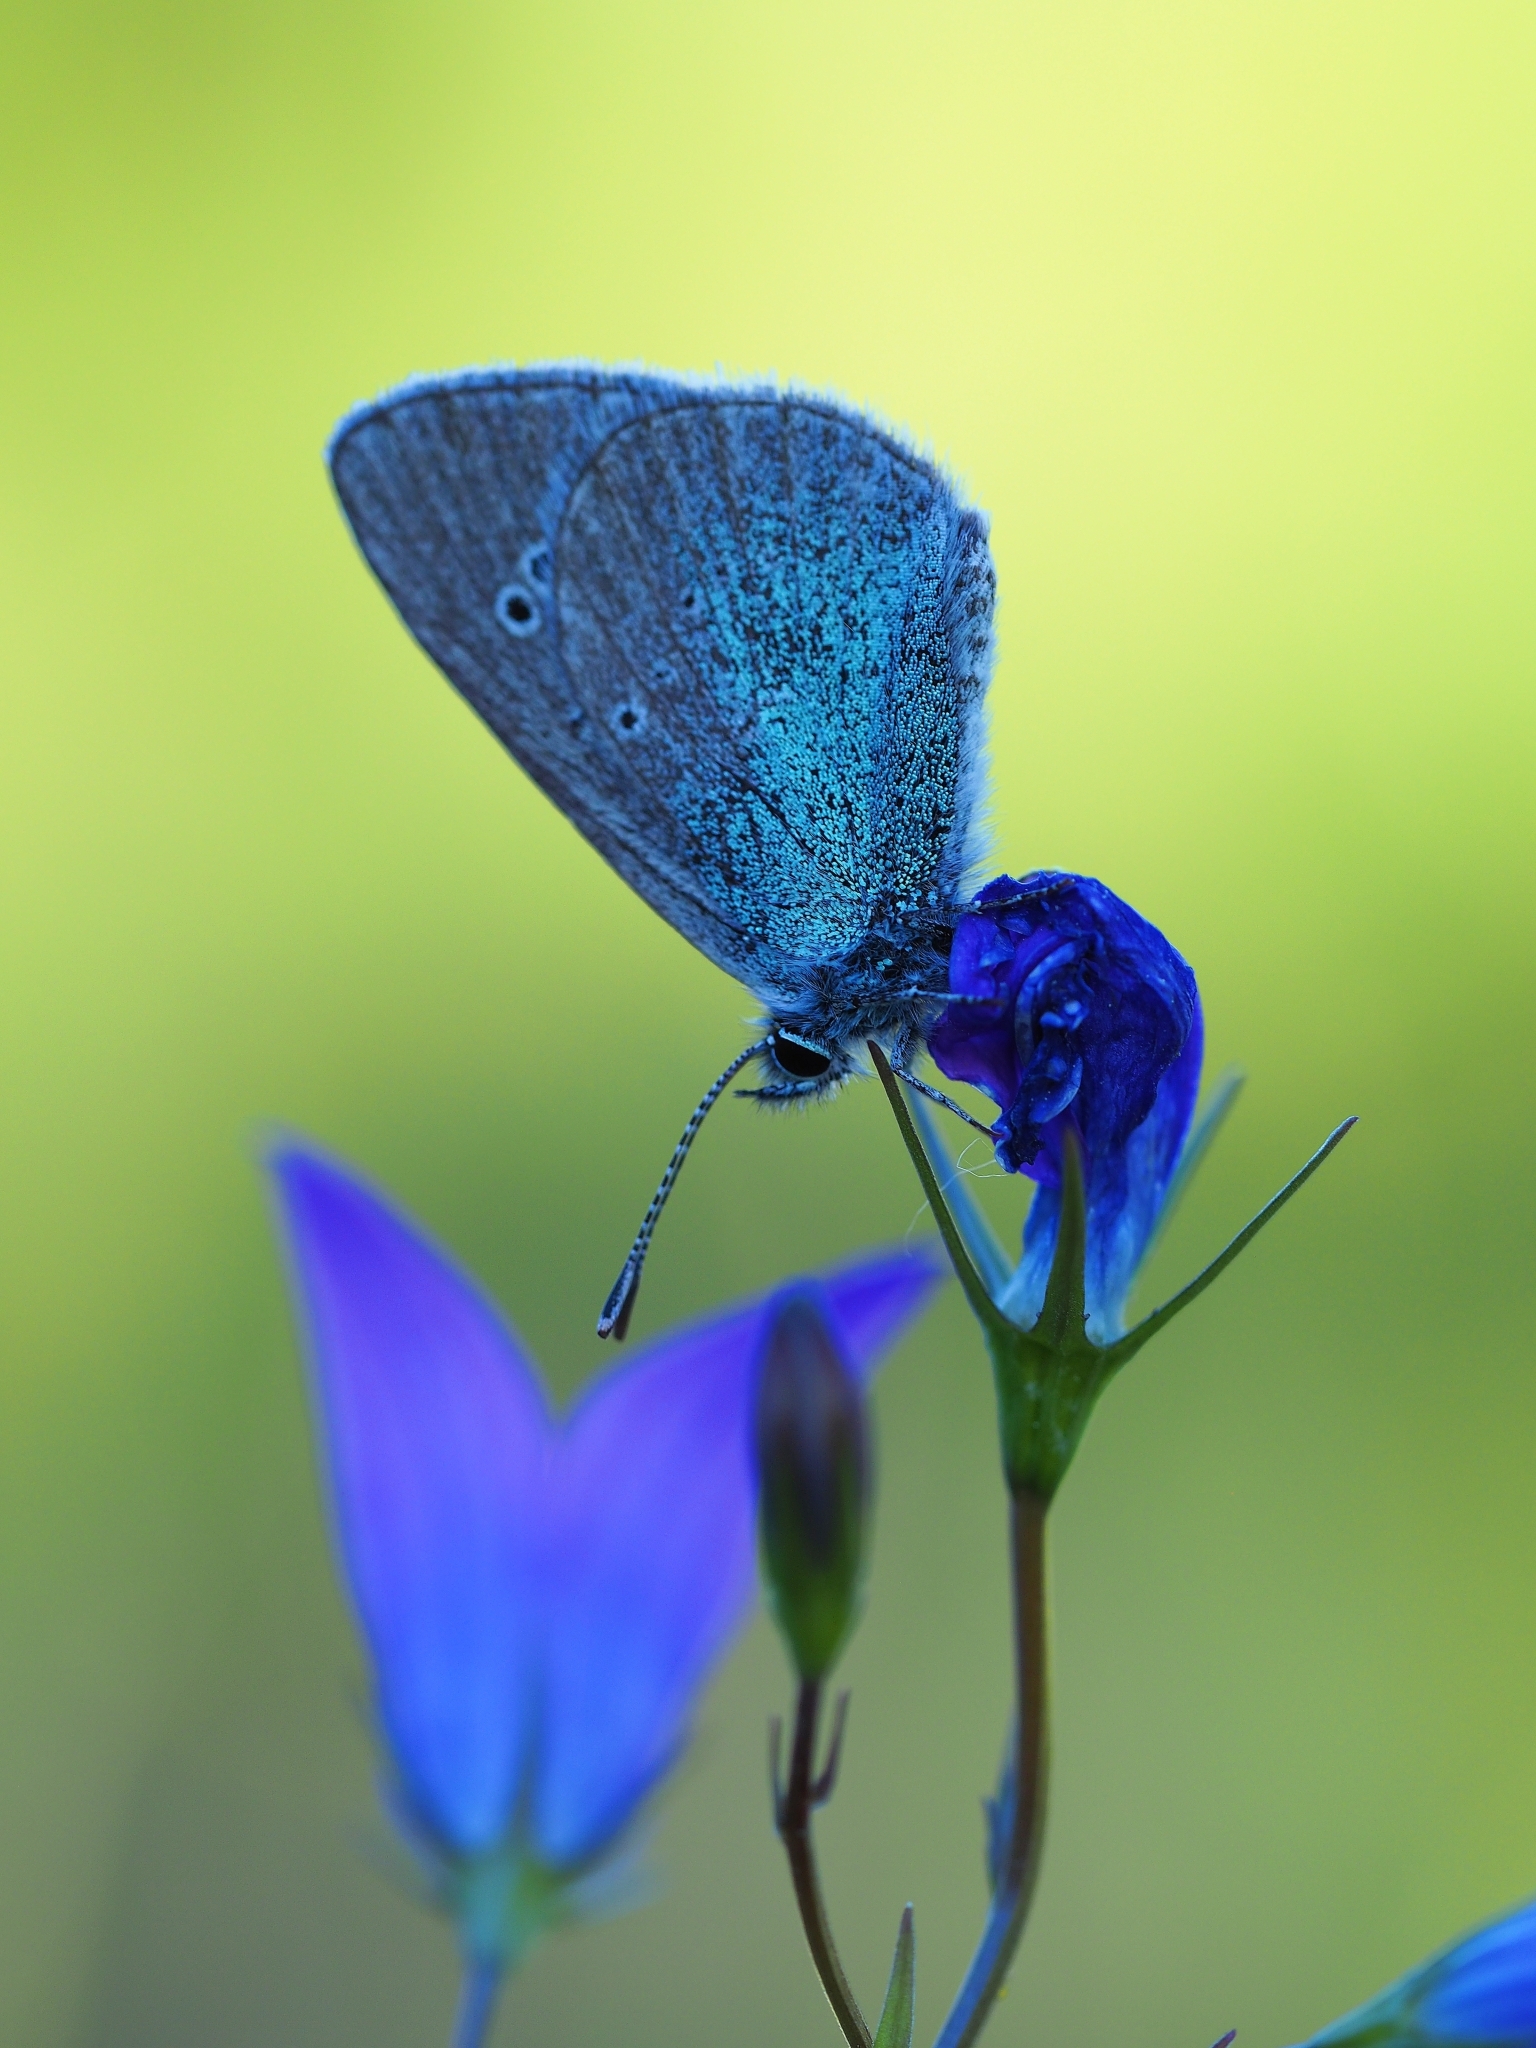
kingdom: Animalia
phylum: Arthropoda
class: Insecta
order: Lepidoptera
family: Lycaenidae
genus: Glaucopsyche
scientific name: Glaucopsyche alexis
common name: Green-underside blue
